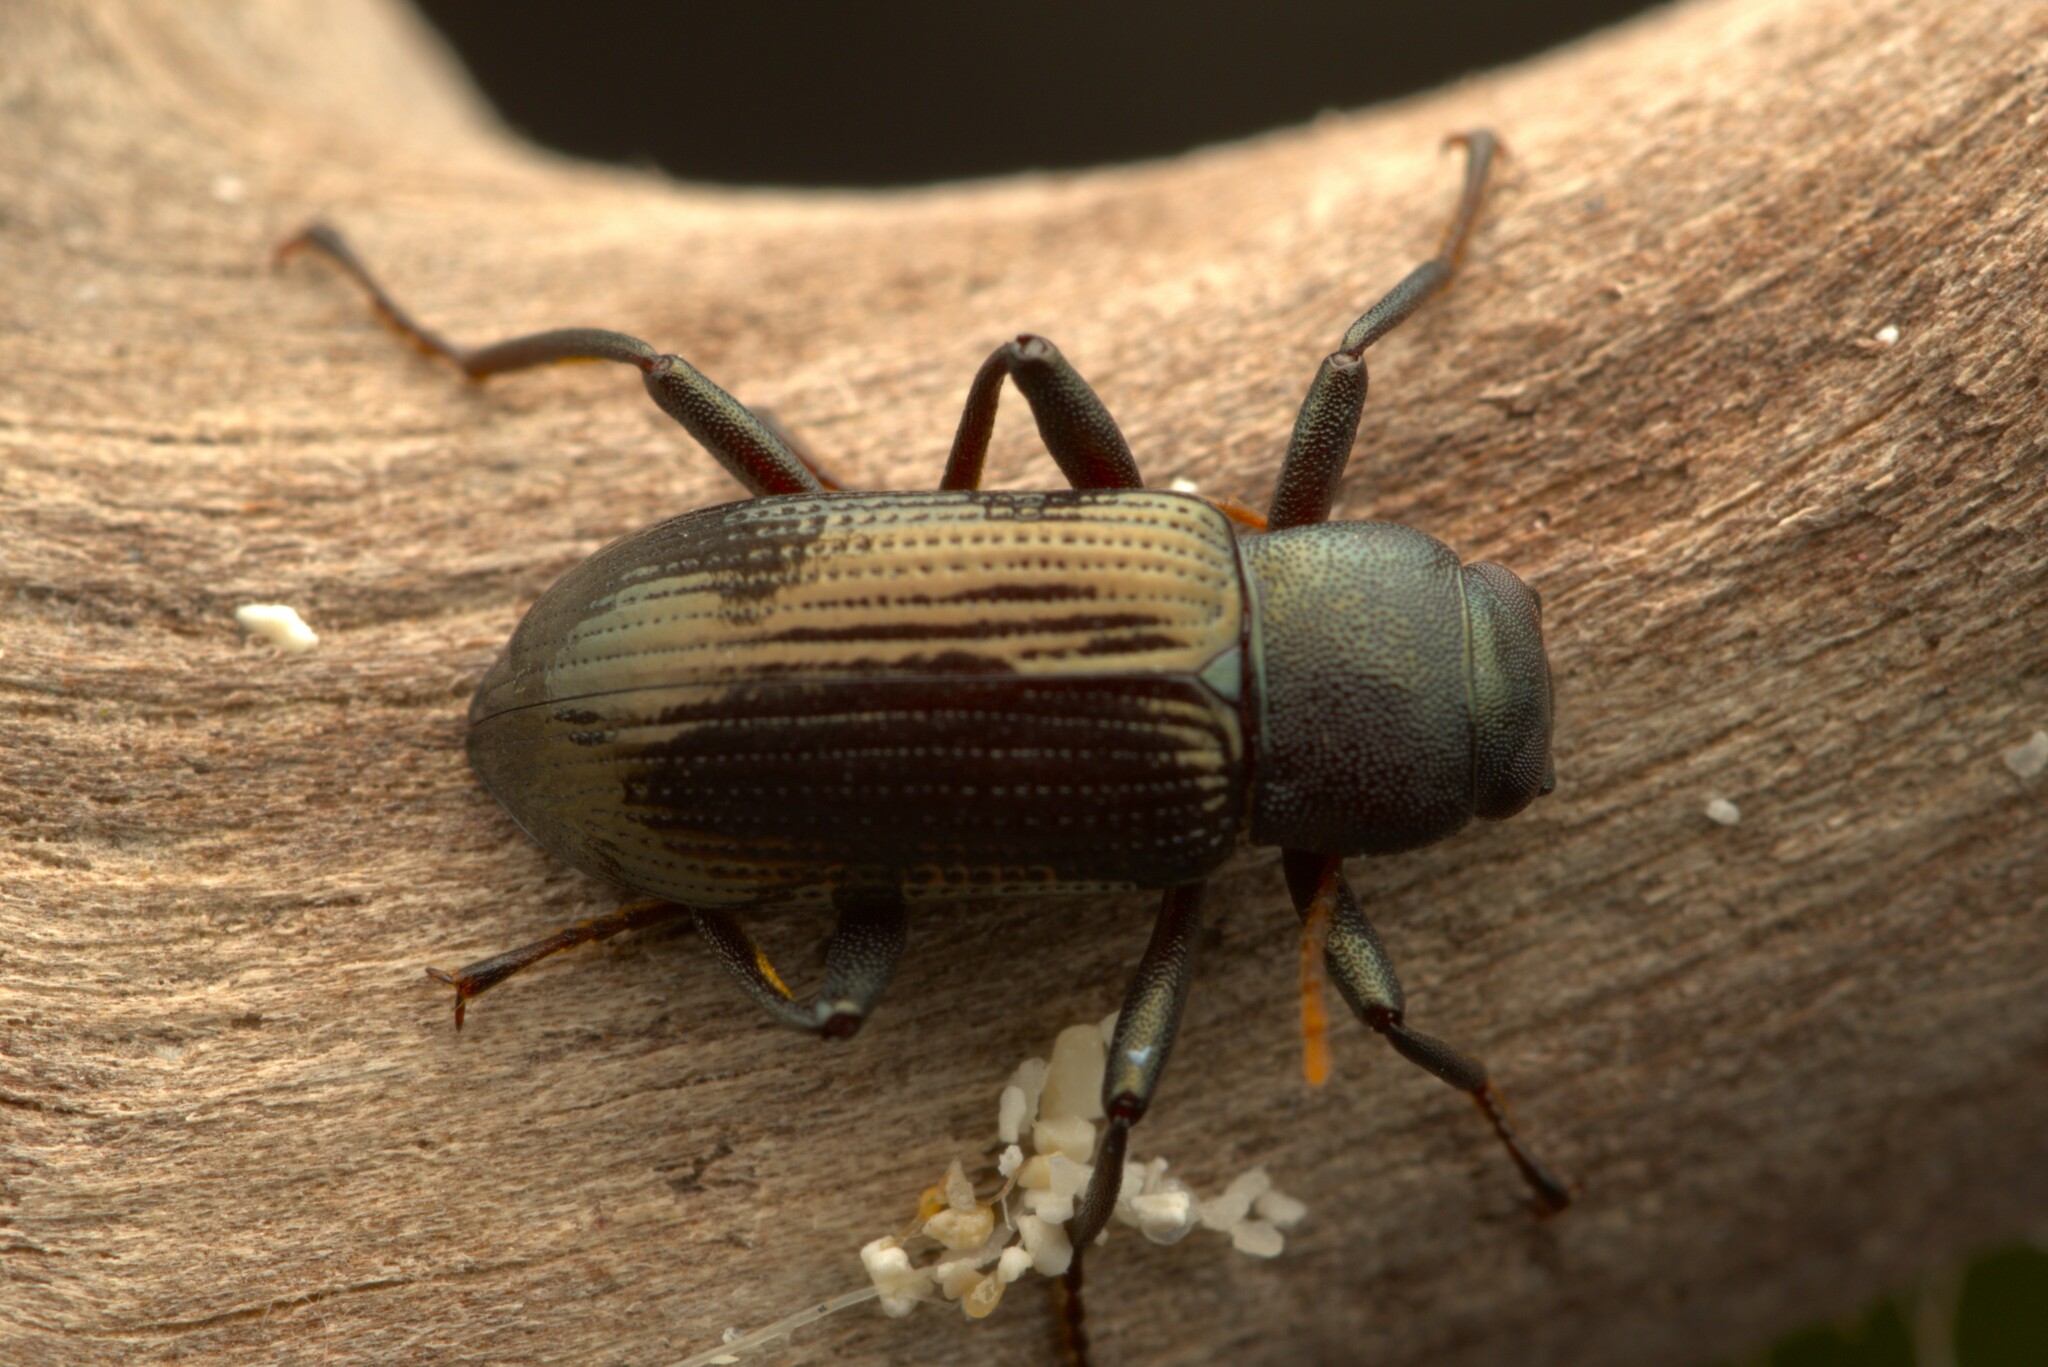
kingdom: Animalia
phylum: Arthropoda
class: Insecta
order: Coleoptera
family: Tenebrionidae
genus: Strongylium
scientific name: Strongylium paddai
